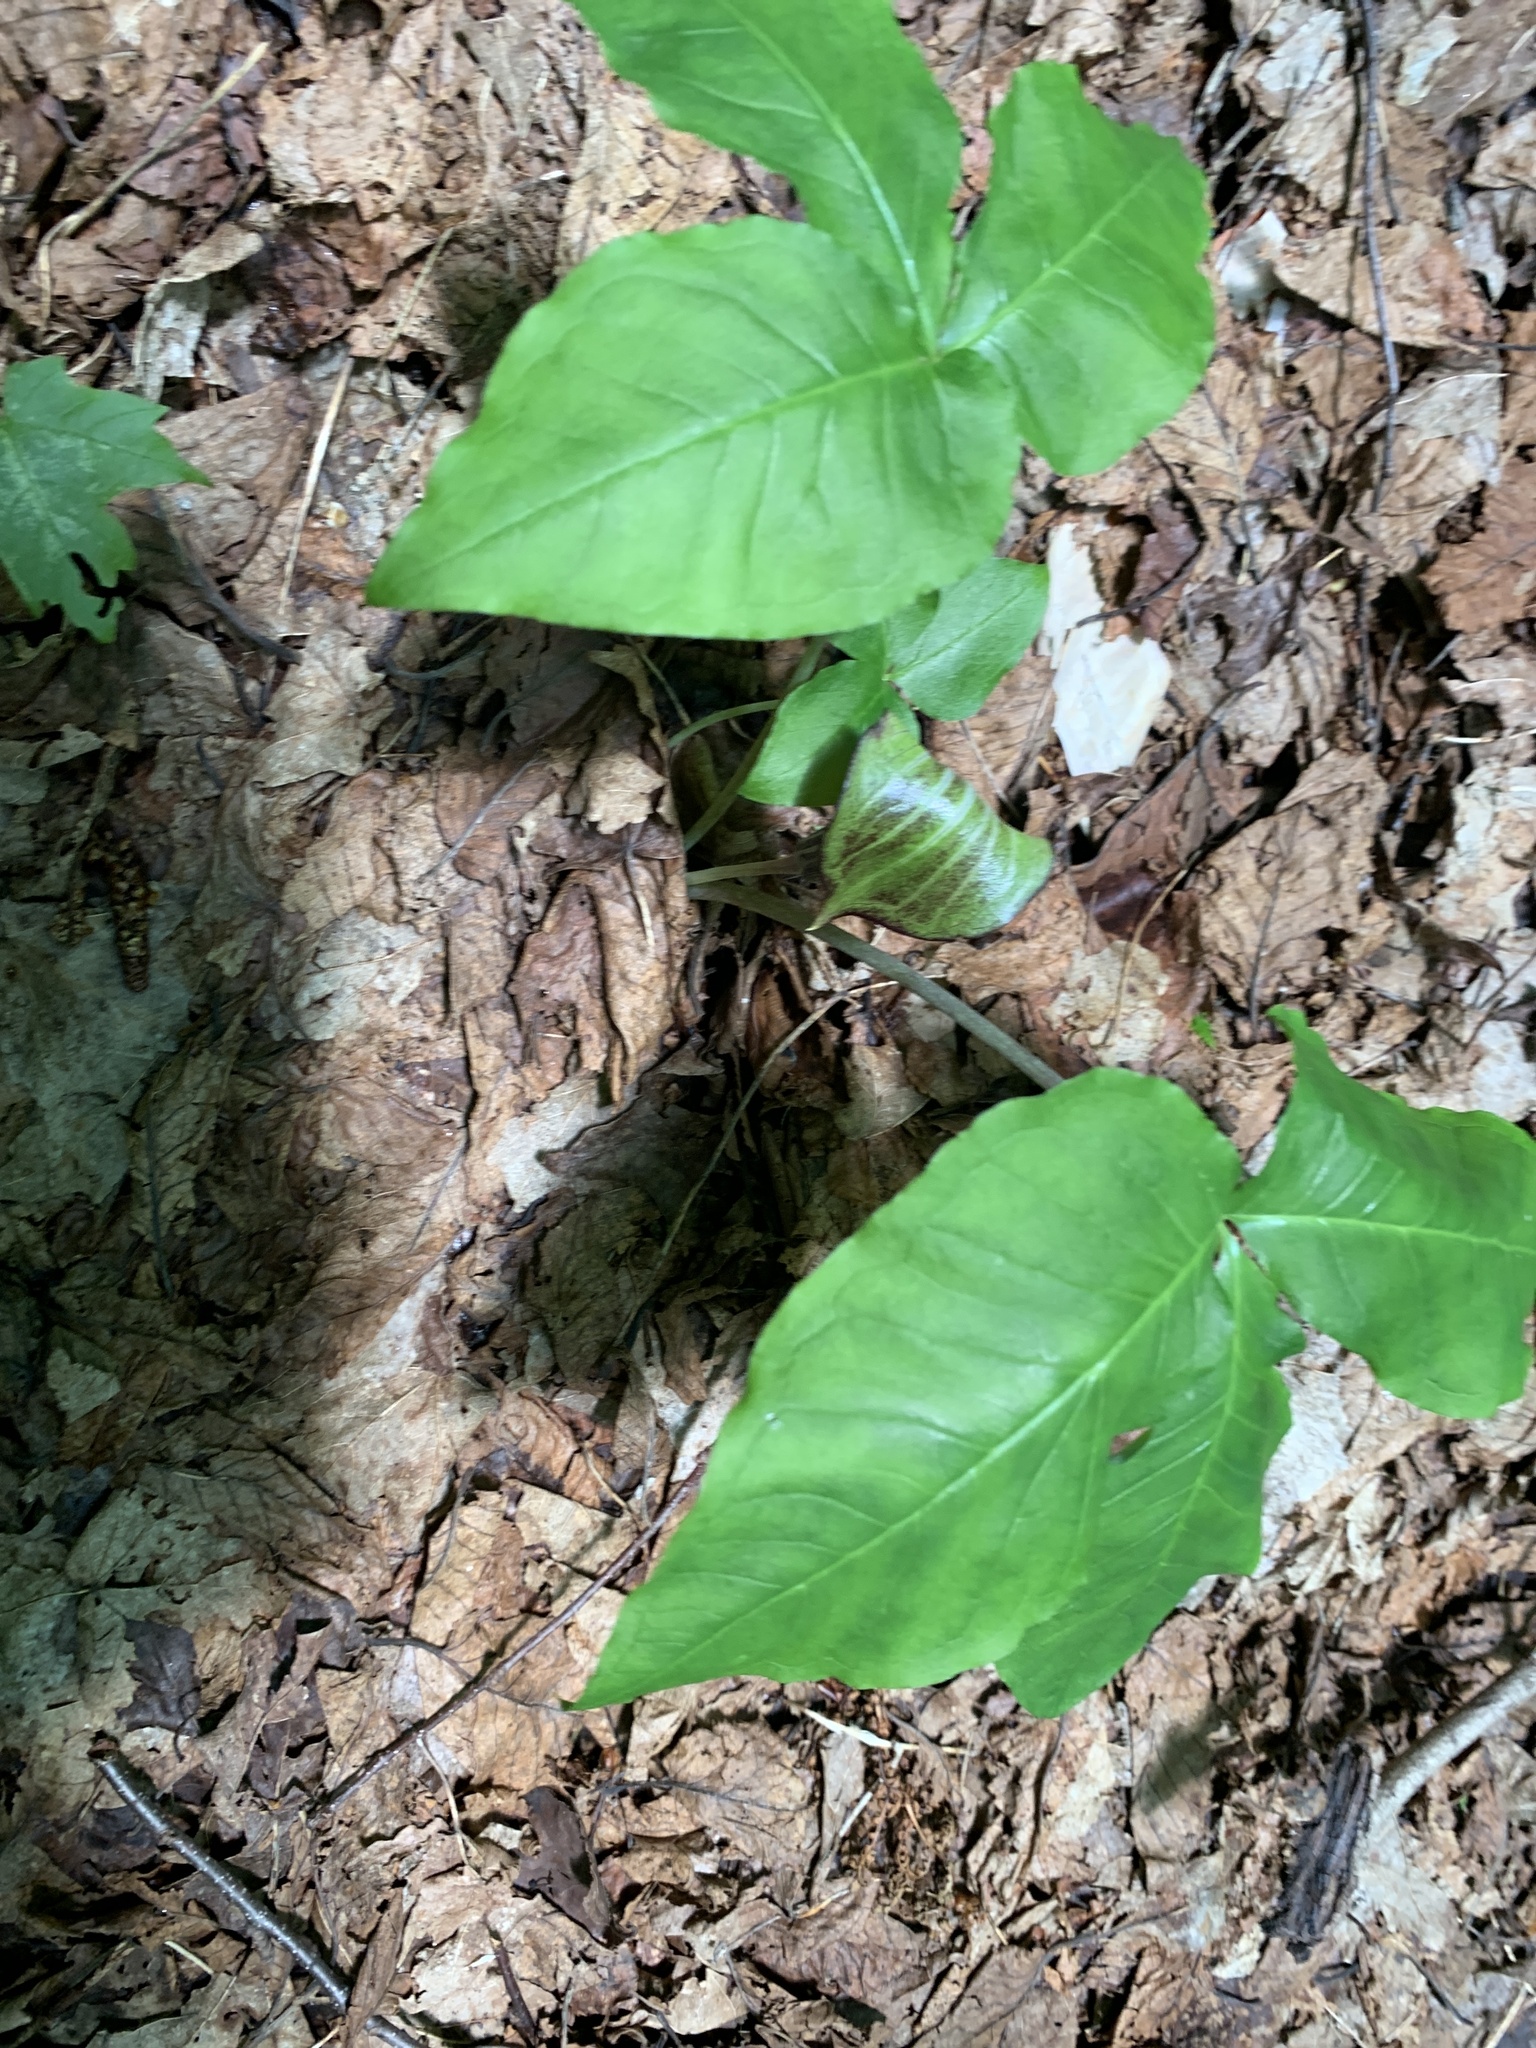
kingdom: Plantae
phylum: Tracheophyta
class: Liliopsida
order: Alismatales
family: Araceae
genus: Arisaema
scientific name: Arisaema triphyllum
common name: Jack-in-the-pulpit
